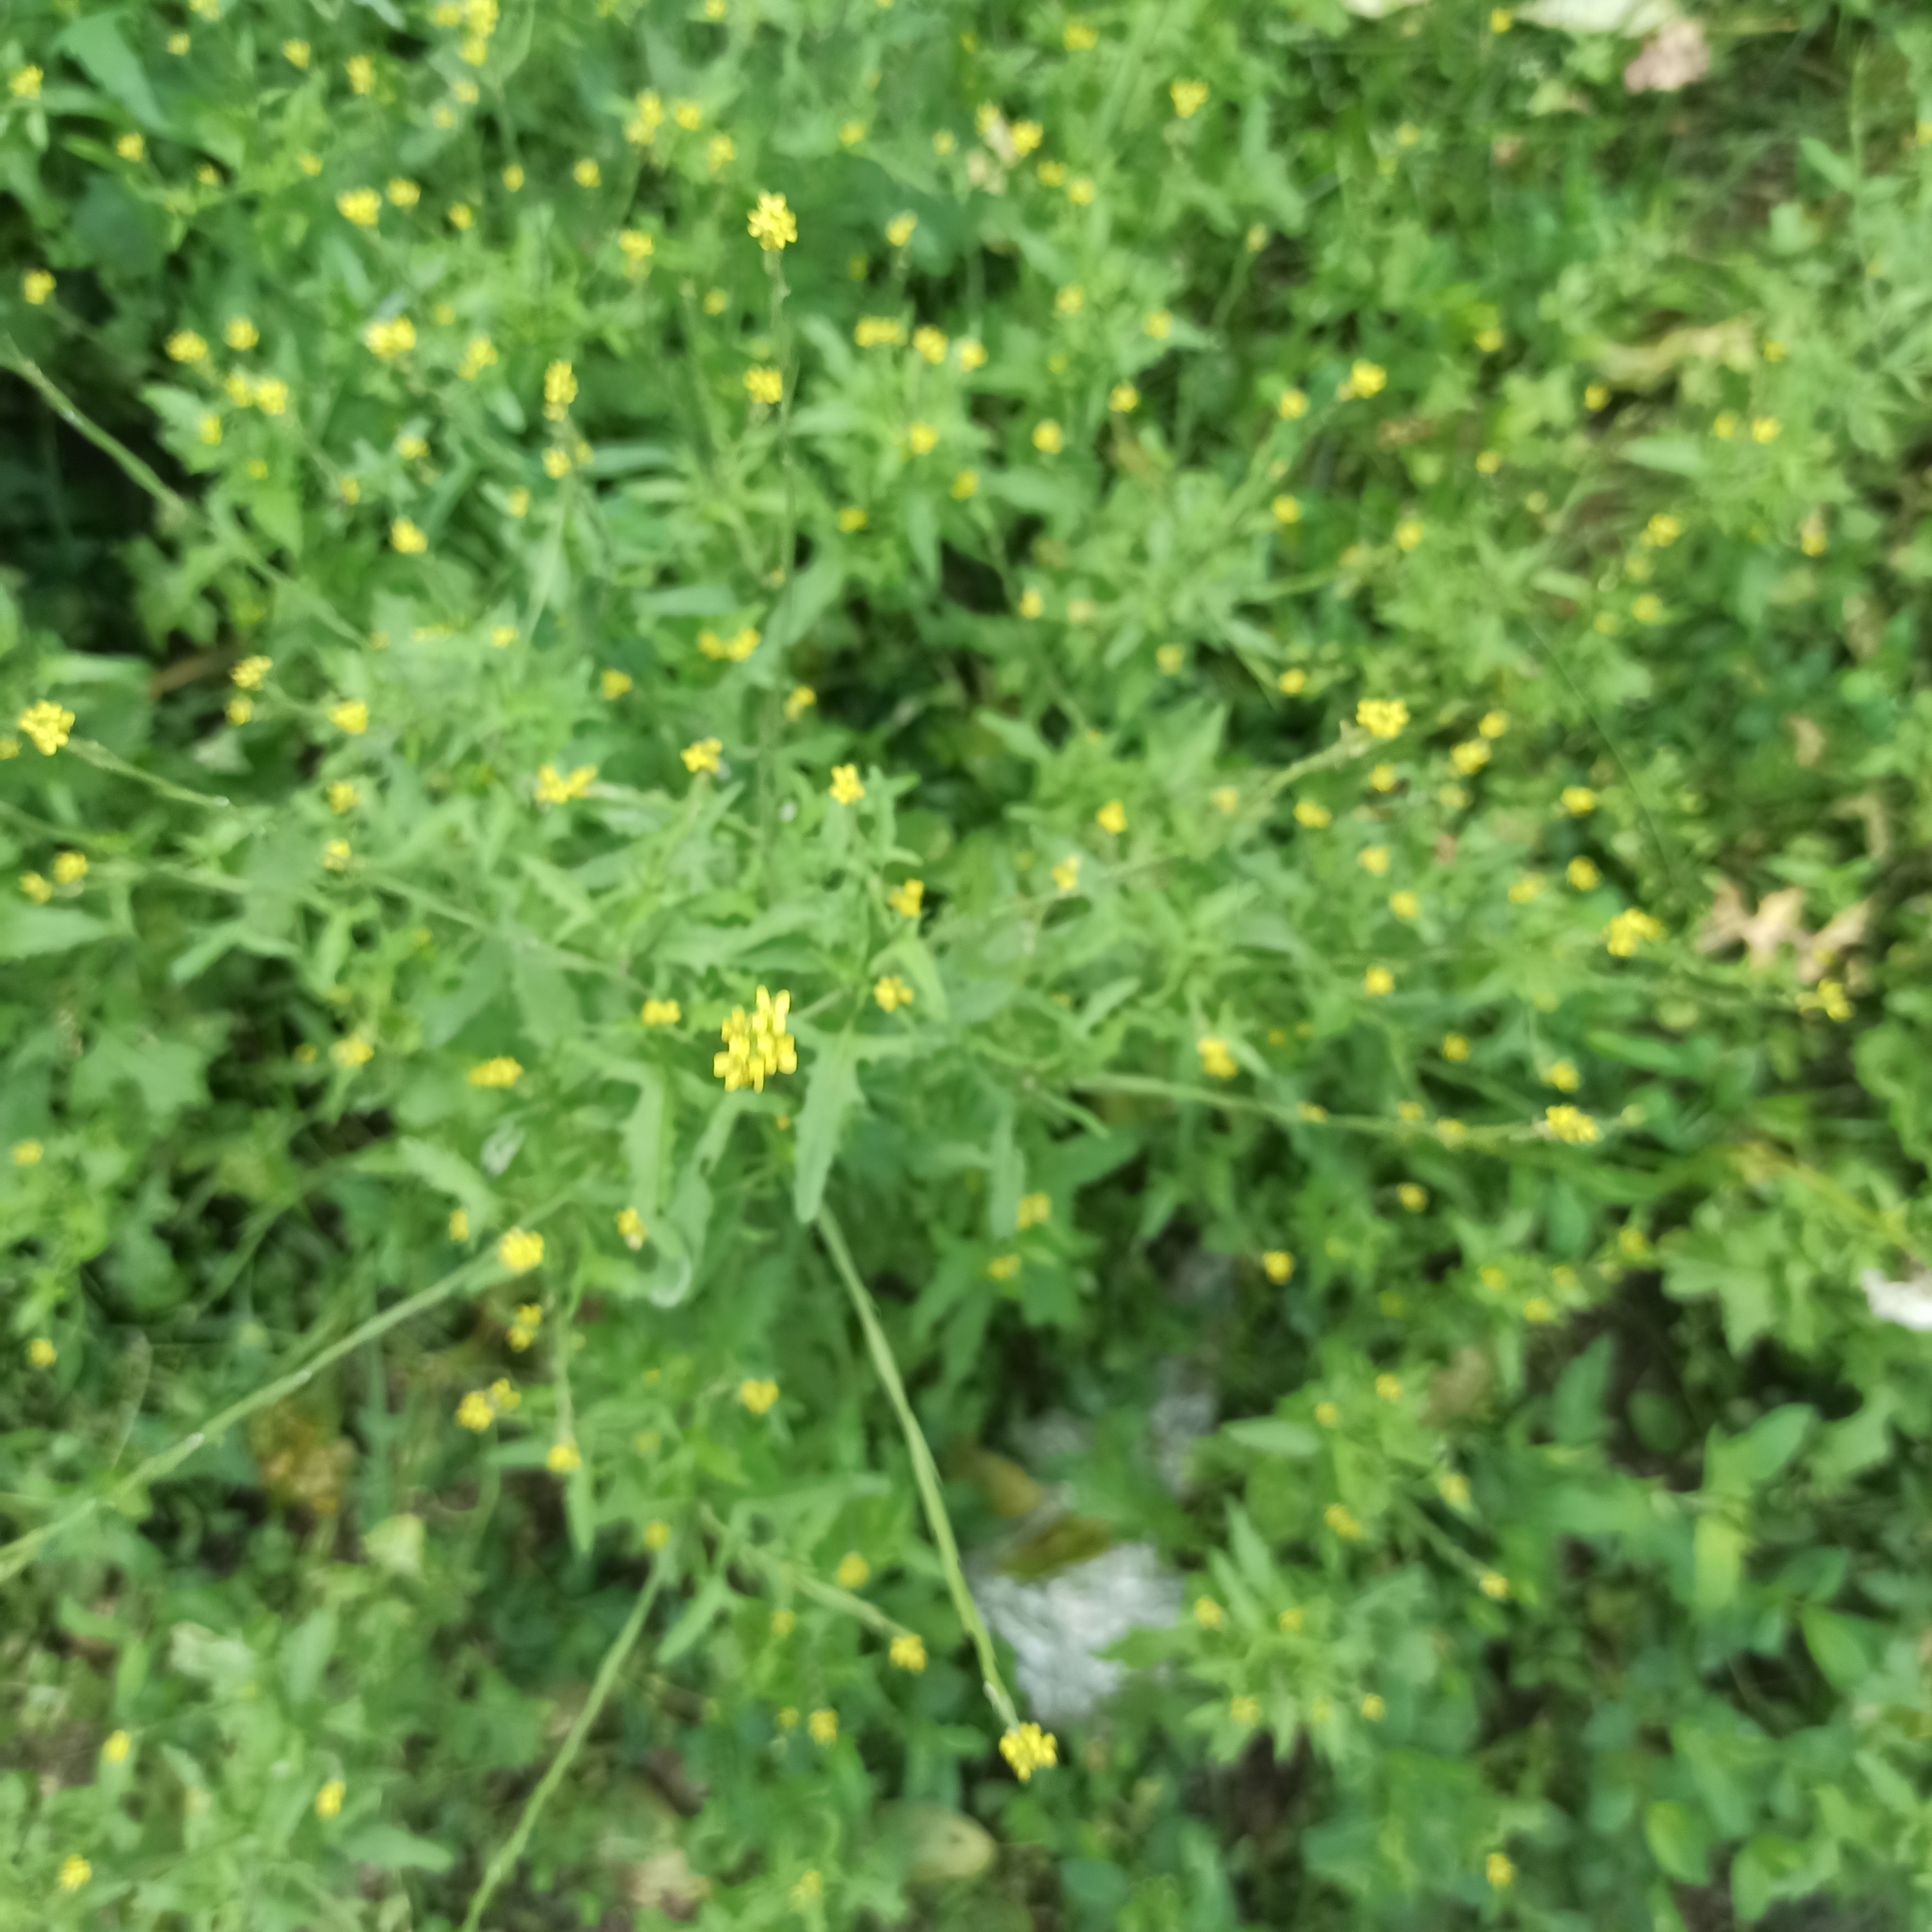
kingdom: Plantae
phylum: Tracheophyta
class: Magnoliopsida
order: Brassicales
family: Brassicaceae
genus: Sisymbrium
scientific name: Sisymbrium officinale
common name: Hedge mustard
